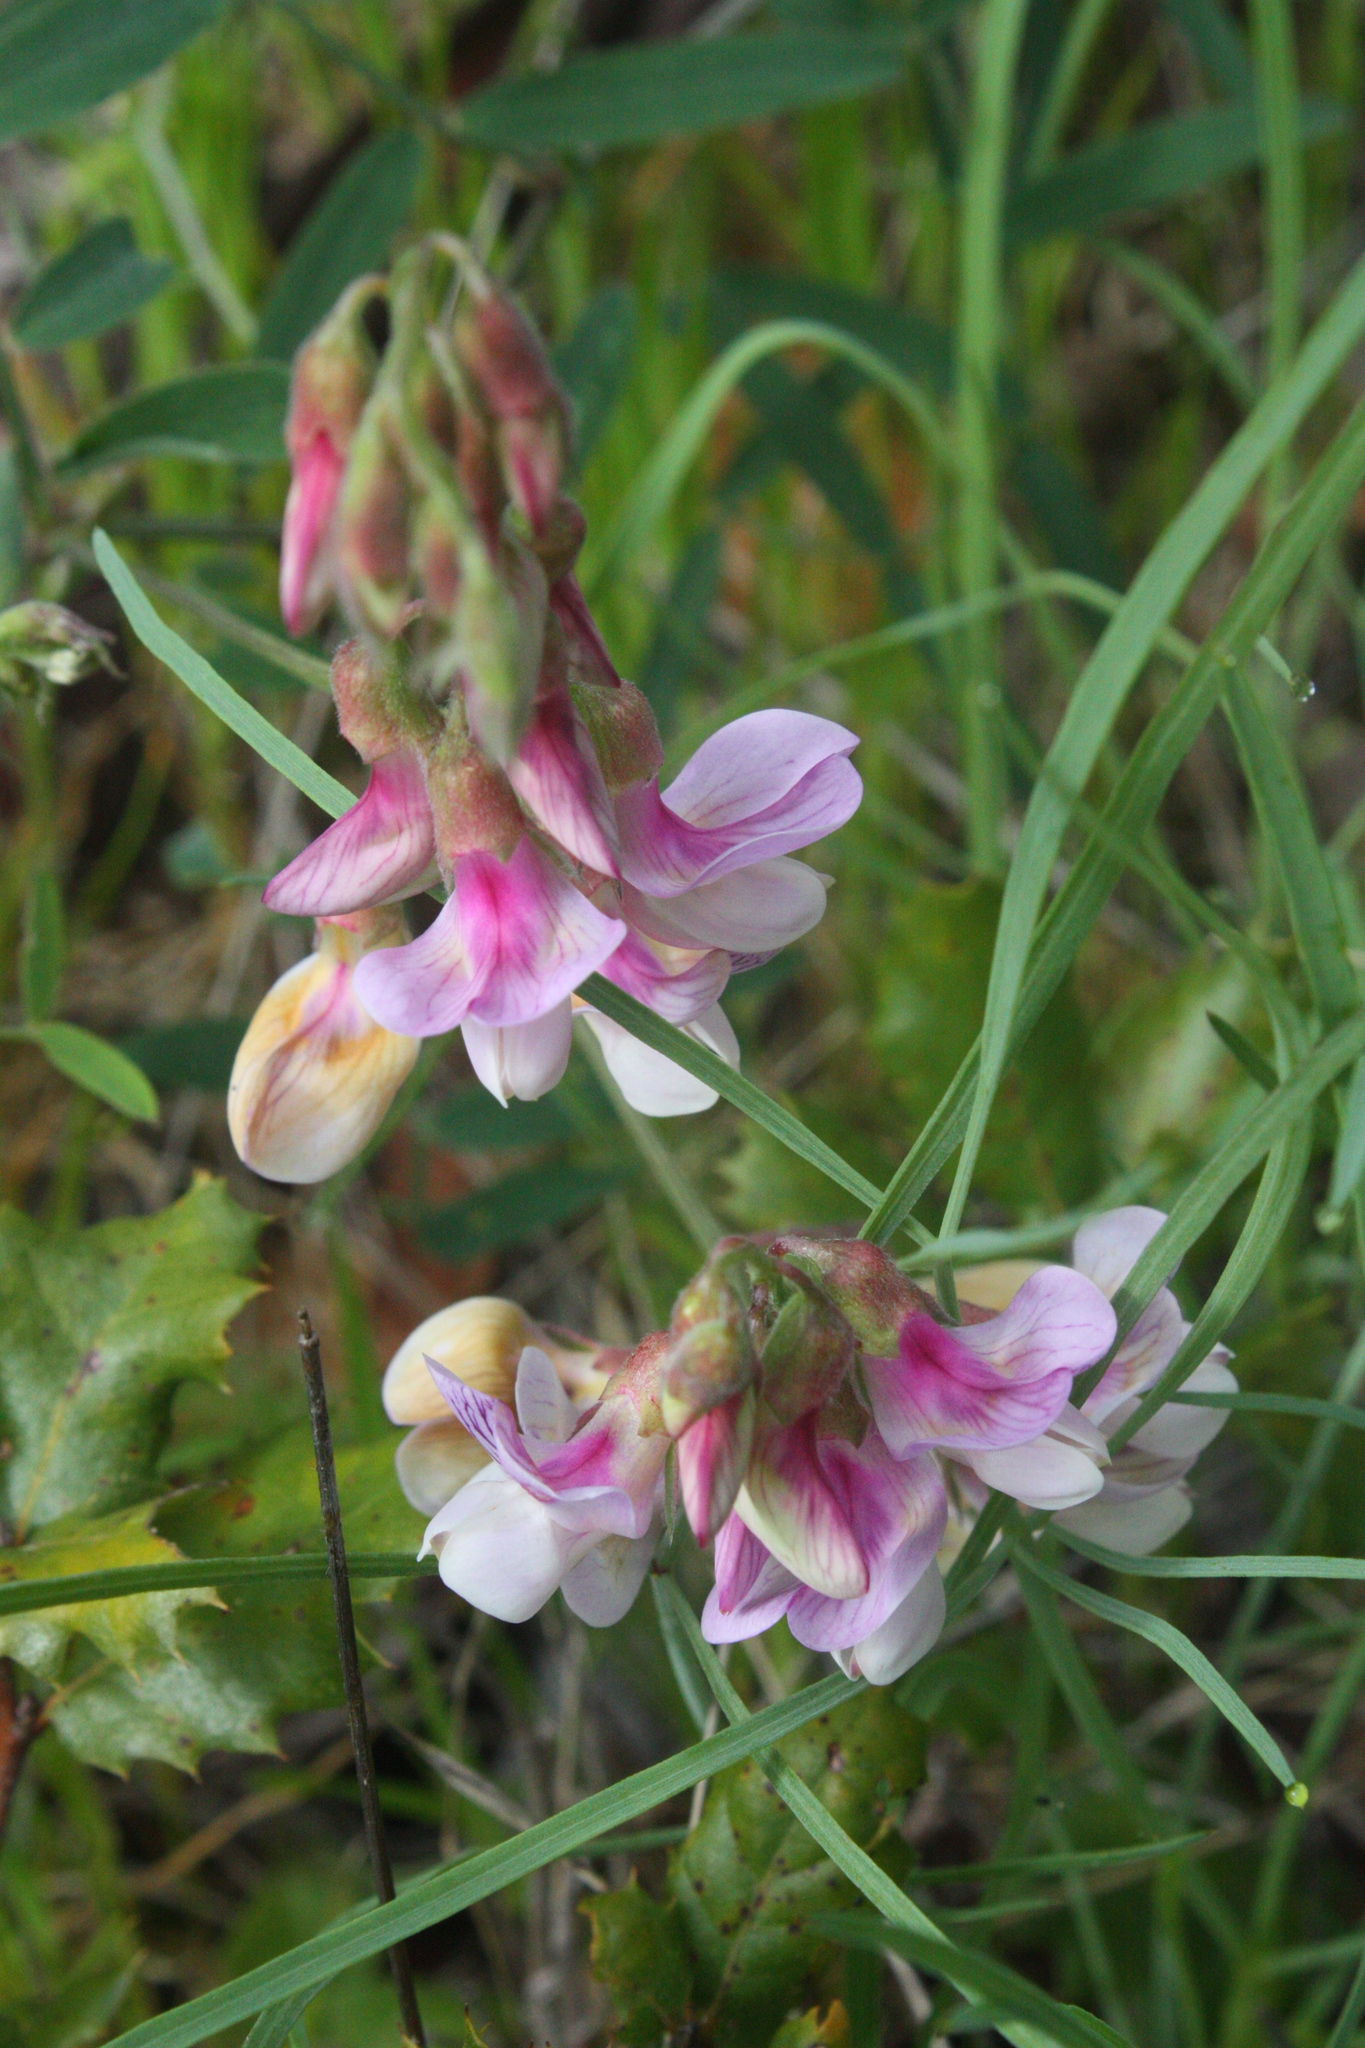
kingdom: Plantae
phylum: Tracheophyta
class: Magnoliopsida
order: Fabales
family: Fabaceae
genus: Lathyrus
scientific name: Lathyrus vestitus
